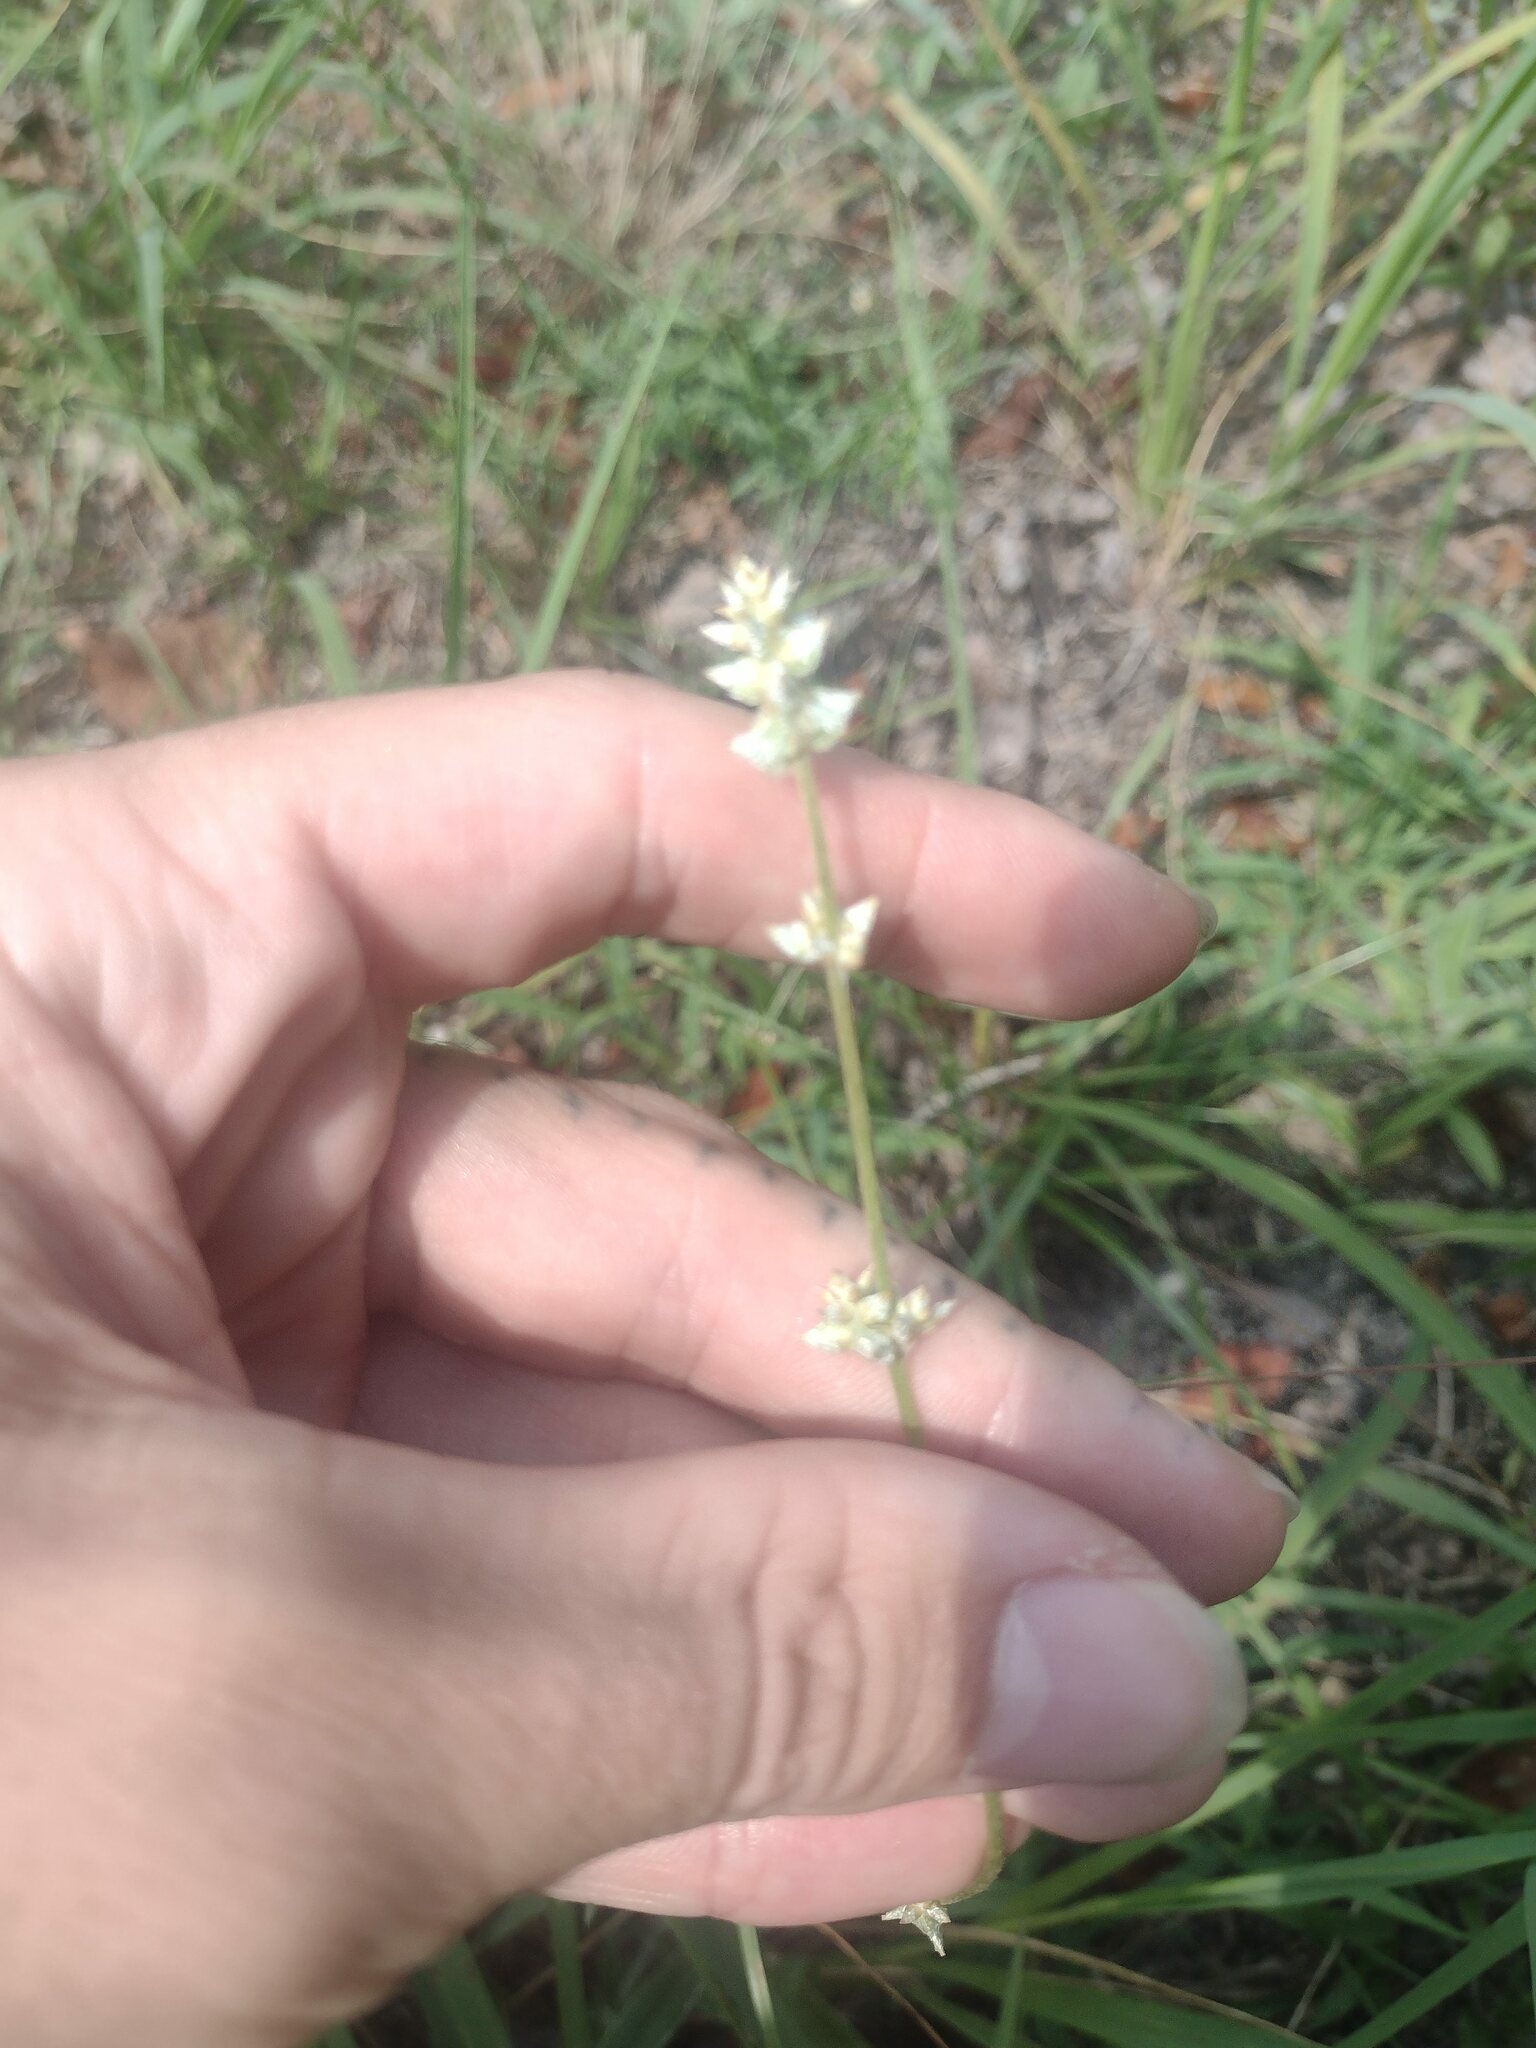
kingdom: Plantae
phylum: Tracheophyta
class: Magnoliopsida
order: Caryophyllales
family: Amaranthaceae
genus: Froelichia
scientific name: Froelichia gracilis
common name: Slender cottonweed
